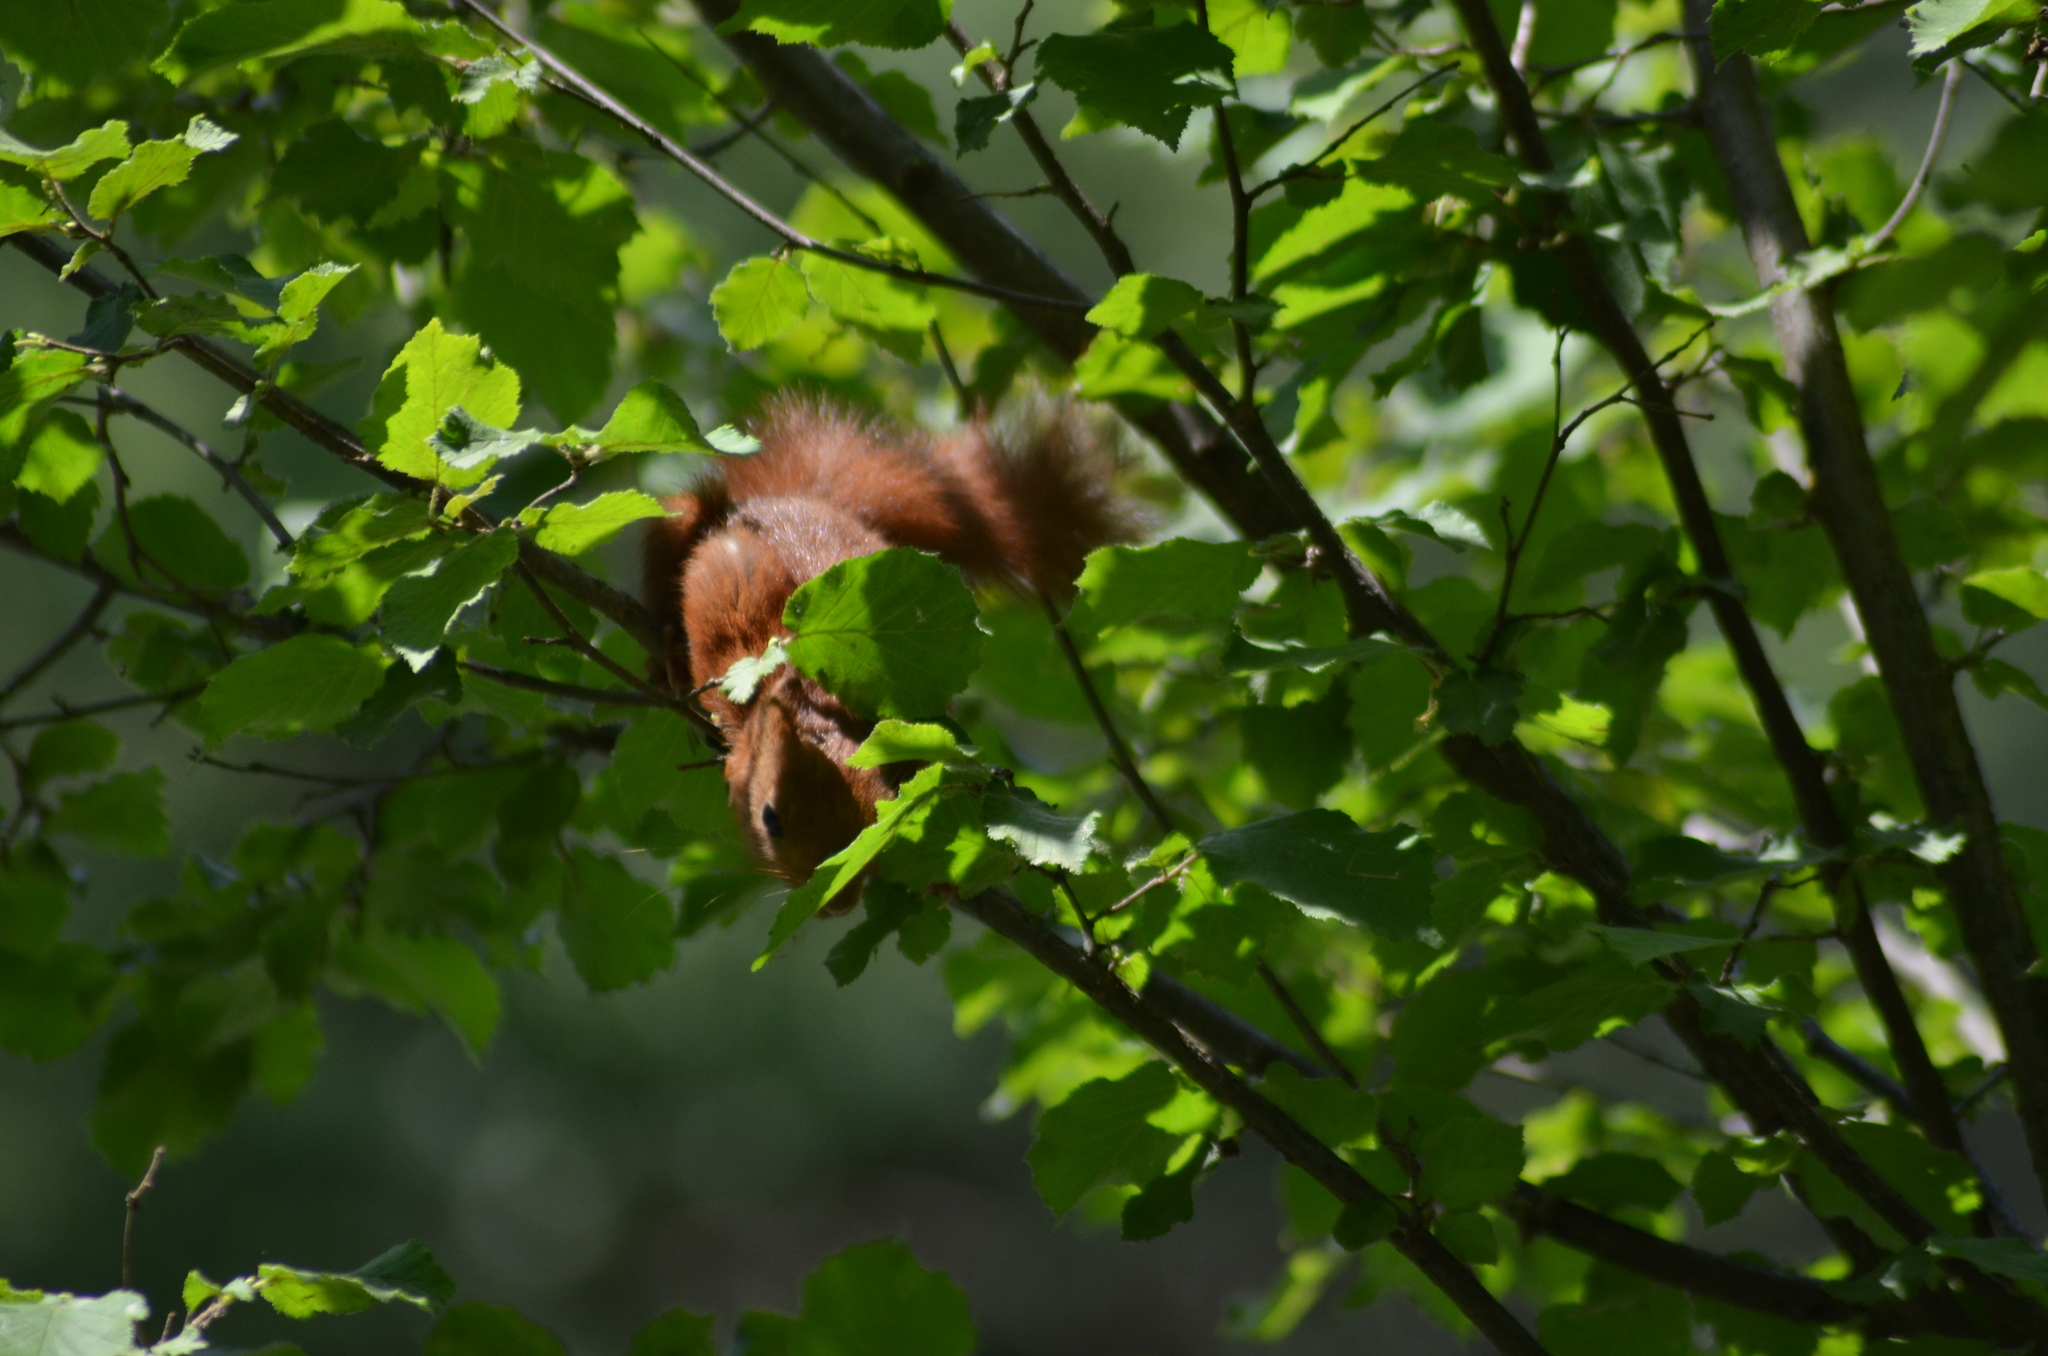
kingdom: Animalia
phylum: Chordata
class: Mammalia
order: Rodentia
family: Sciuridae
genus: Sciurus
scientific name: Sciurus vulgaris
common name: Eurasian red squirrel
